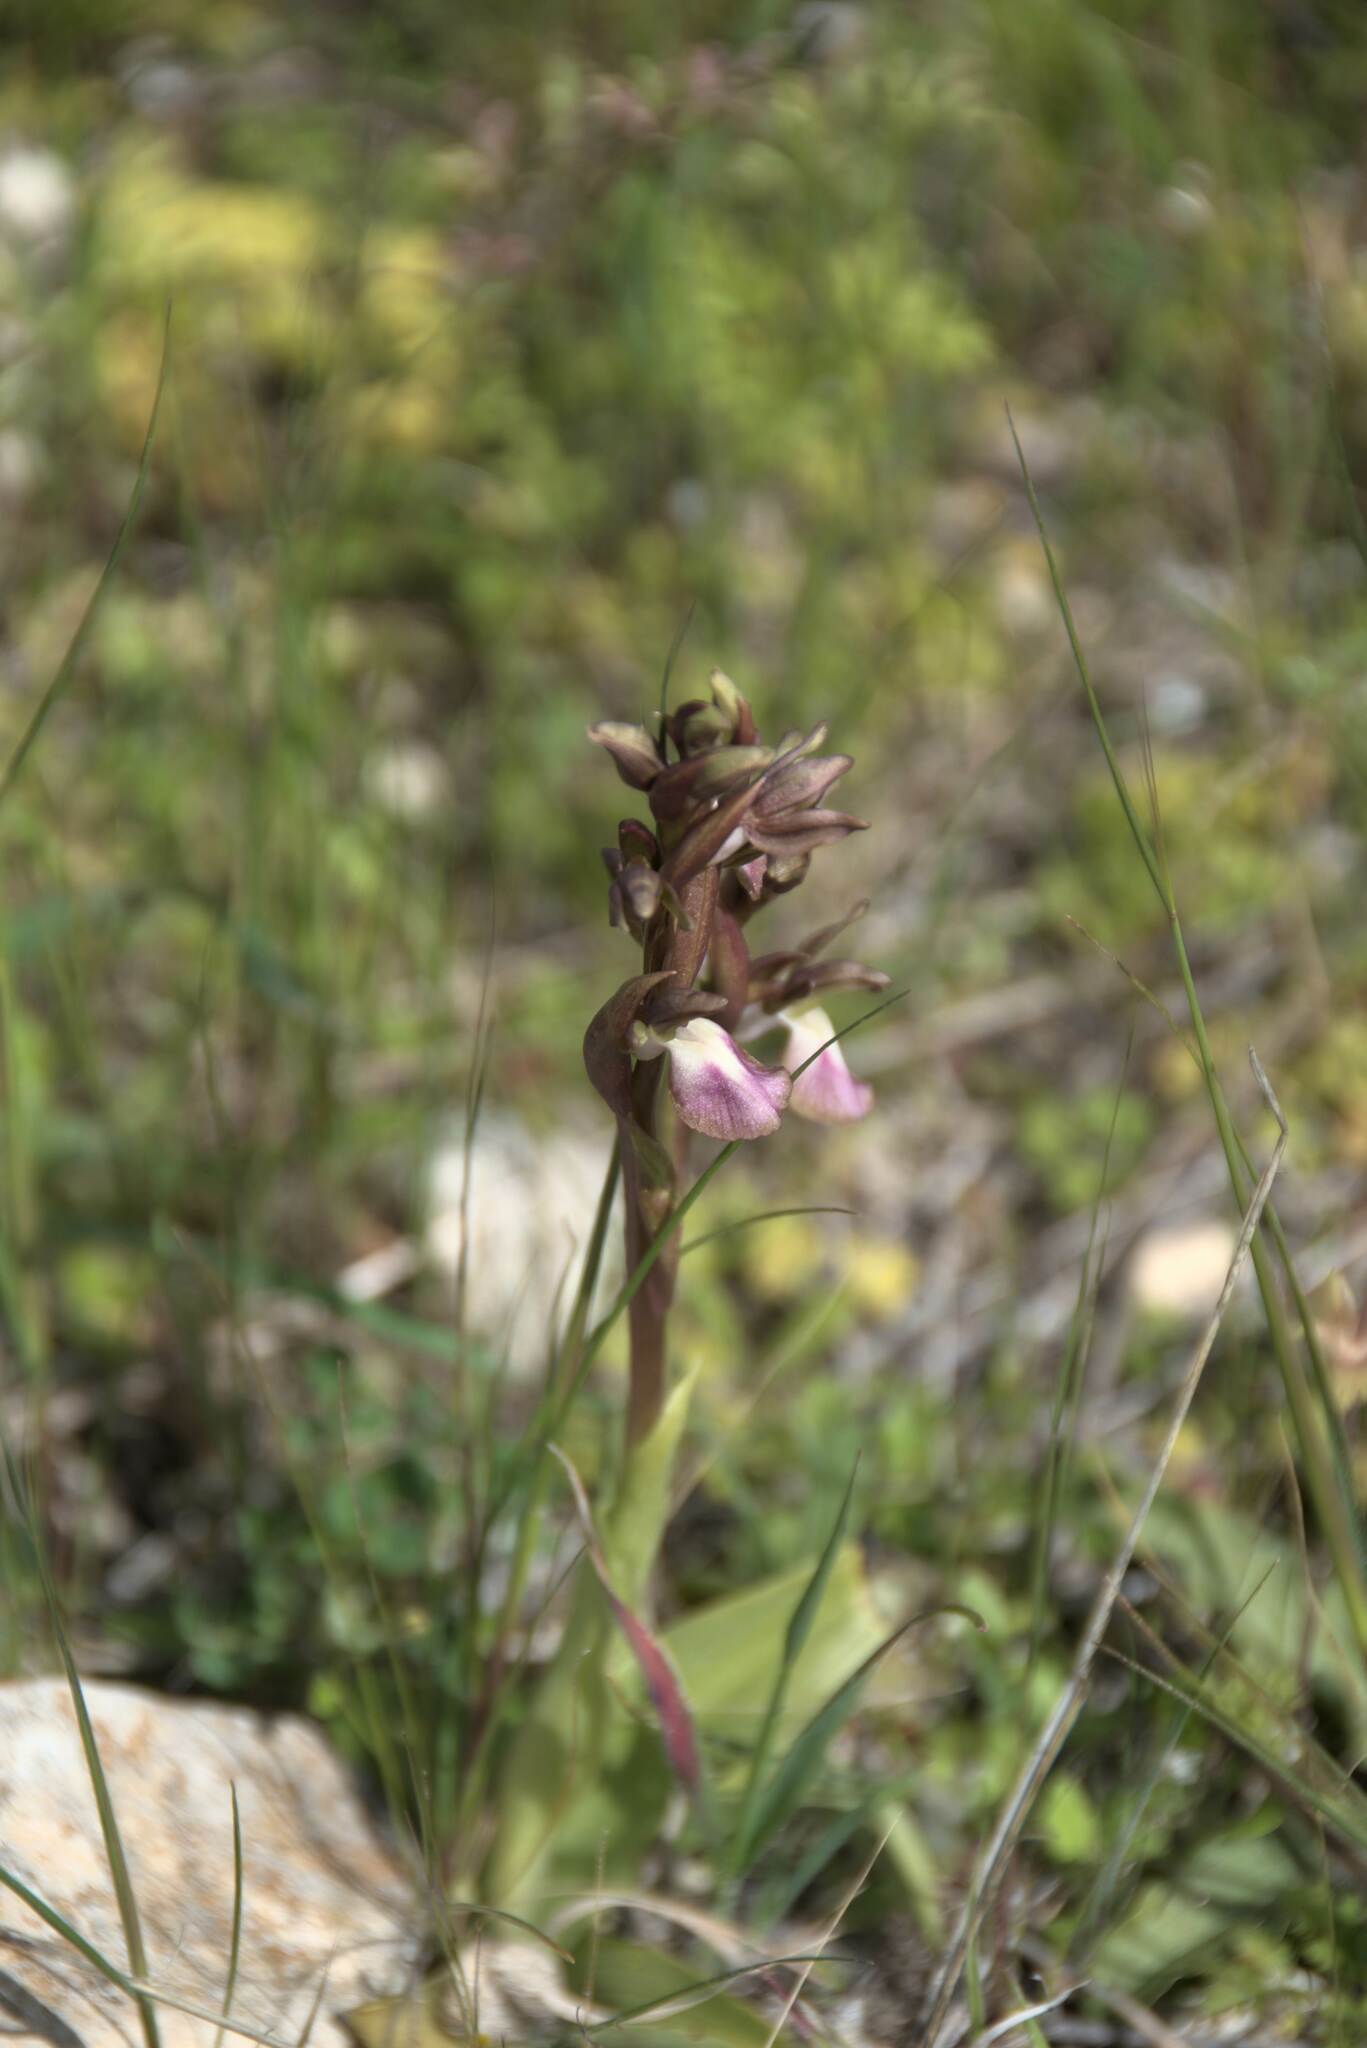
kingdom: Plantae
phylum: Tracheophyta
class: Liliopsida
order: Asparagales
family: Orchidaceae
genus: Anacamptis
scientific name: Anacamptis collina
